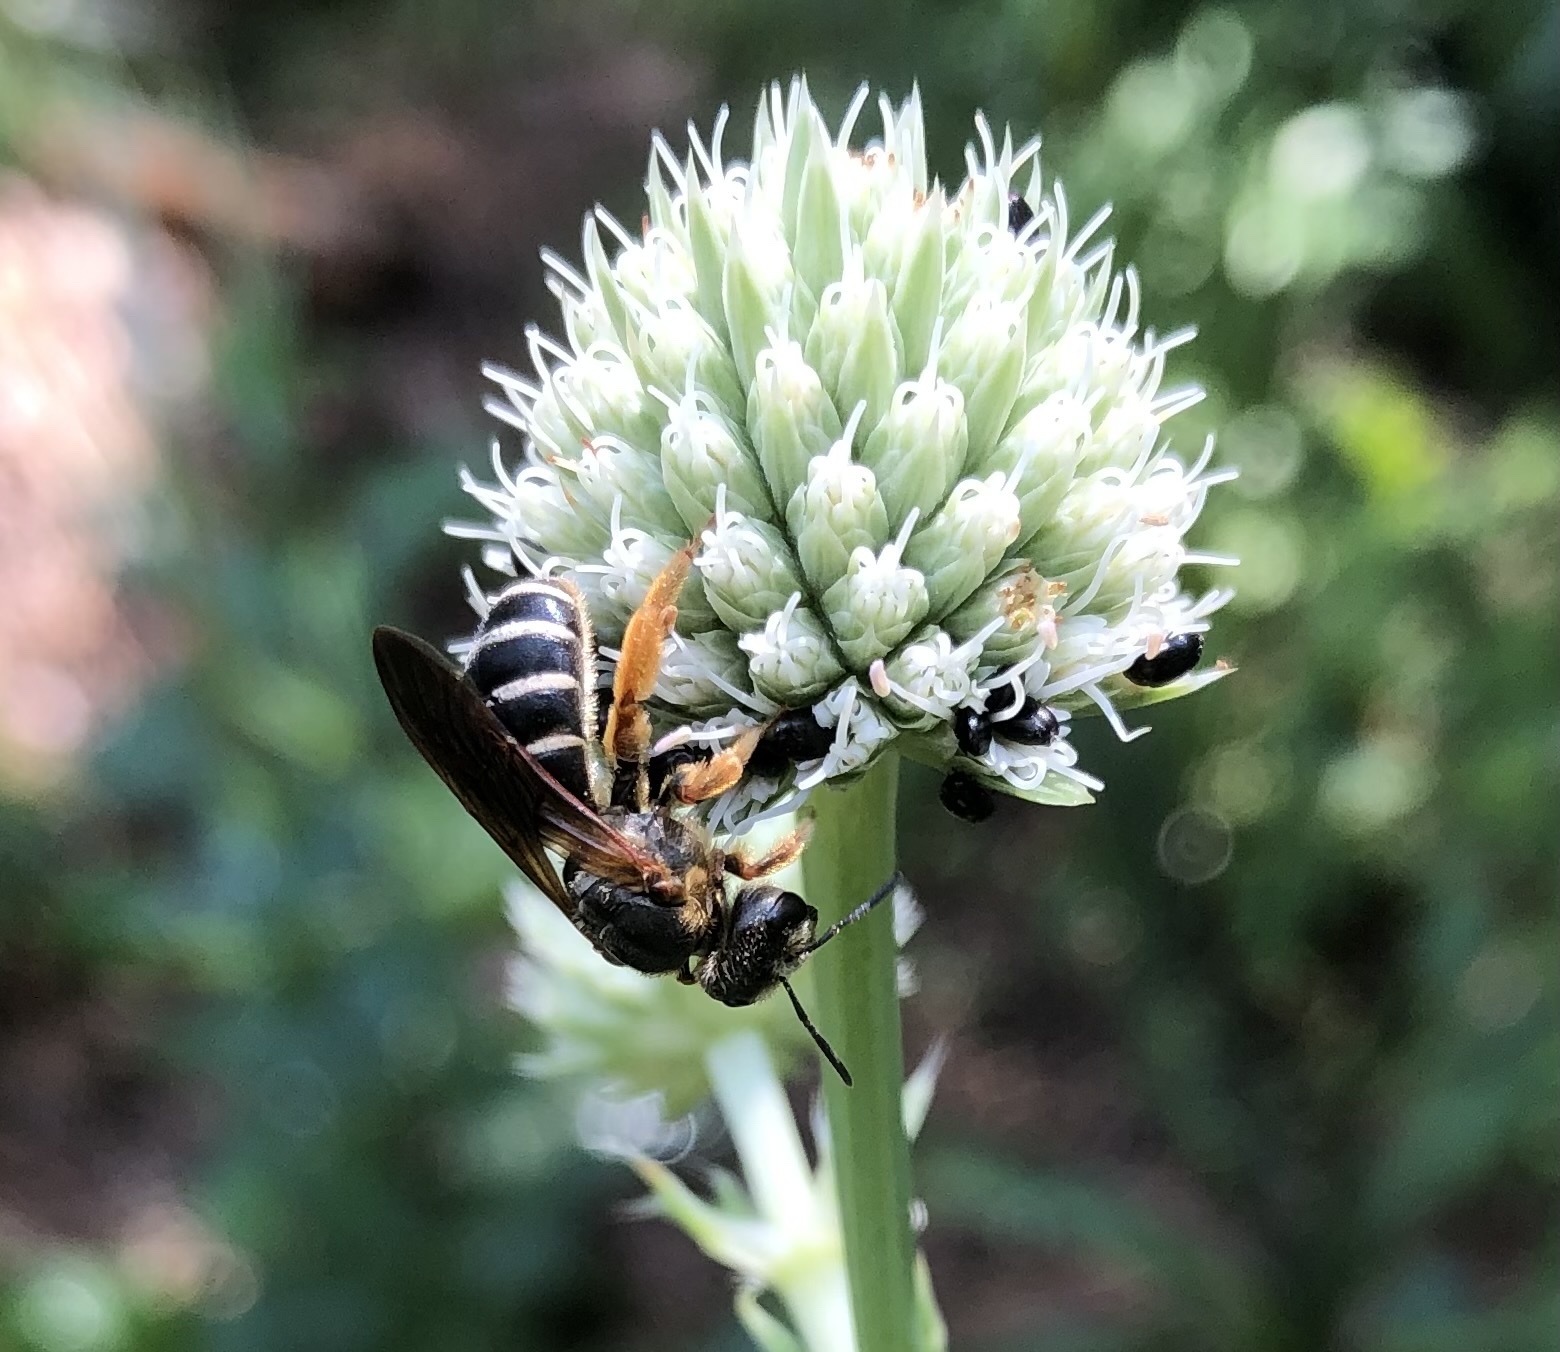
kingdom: Animalia
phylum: Arthropoda
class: Insecta
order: Hymenoptera
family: Halictidae
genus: Halictus
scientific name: Halictus parallelus
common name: Parallel-striped sweat bee
